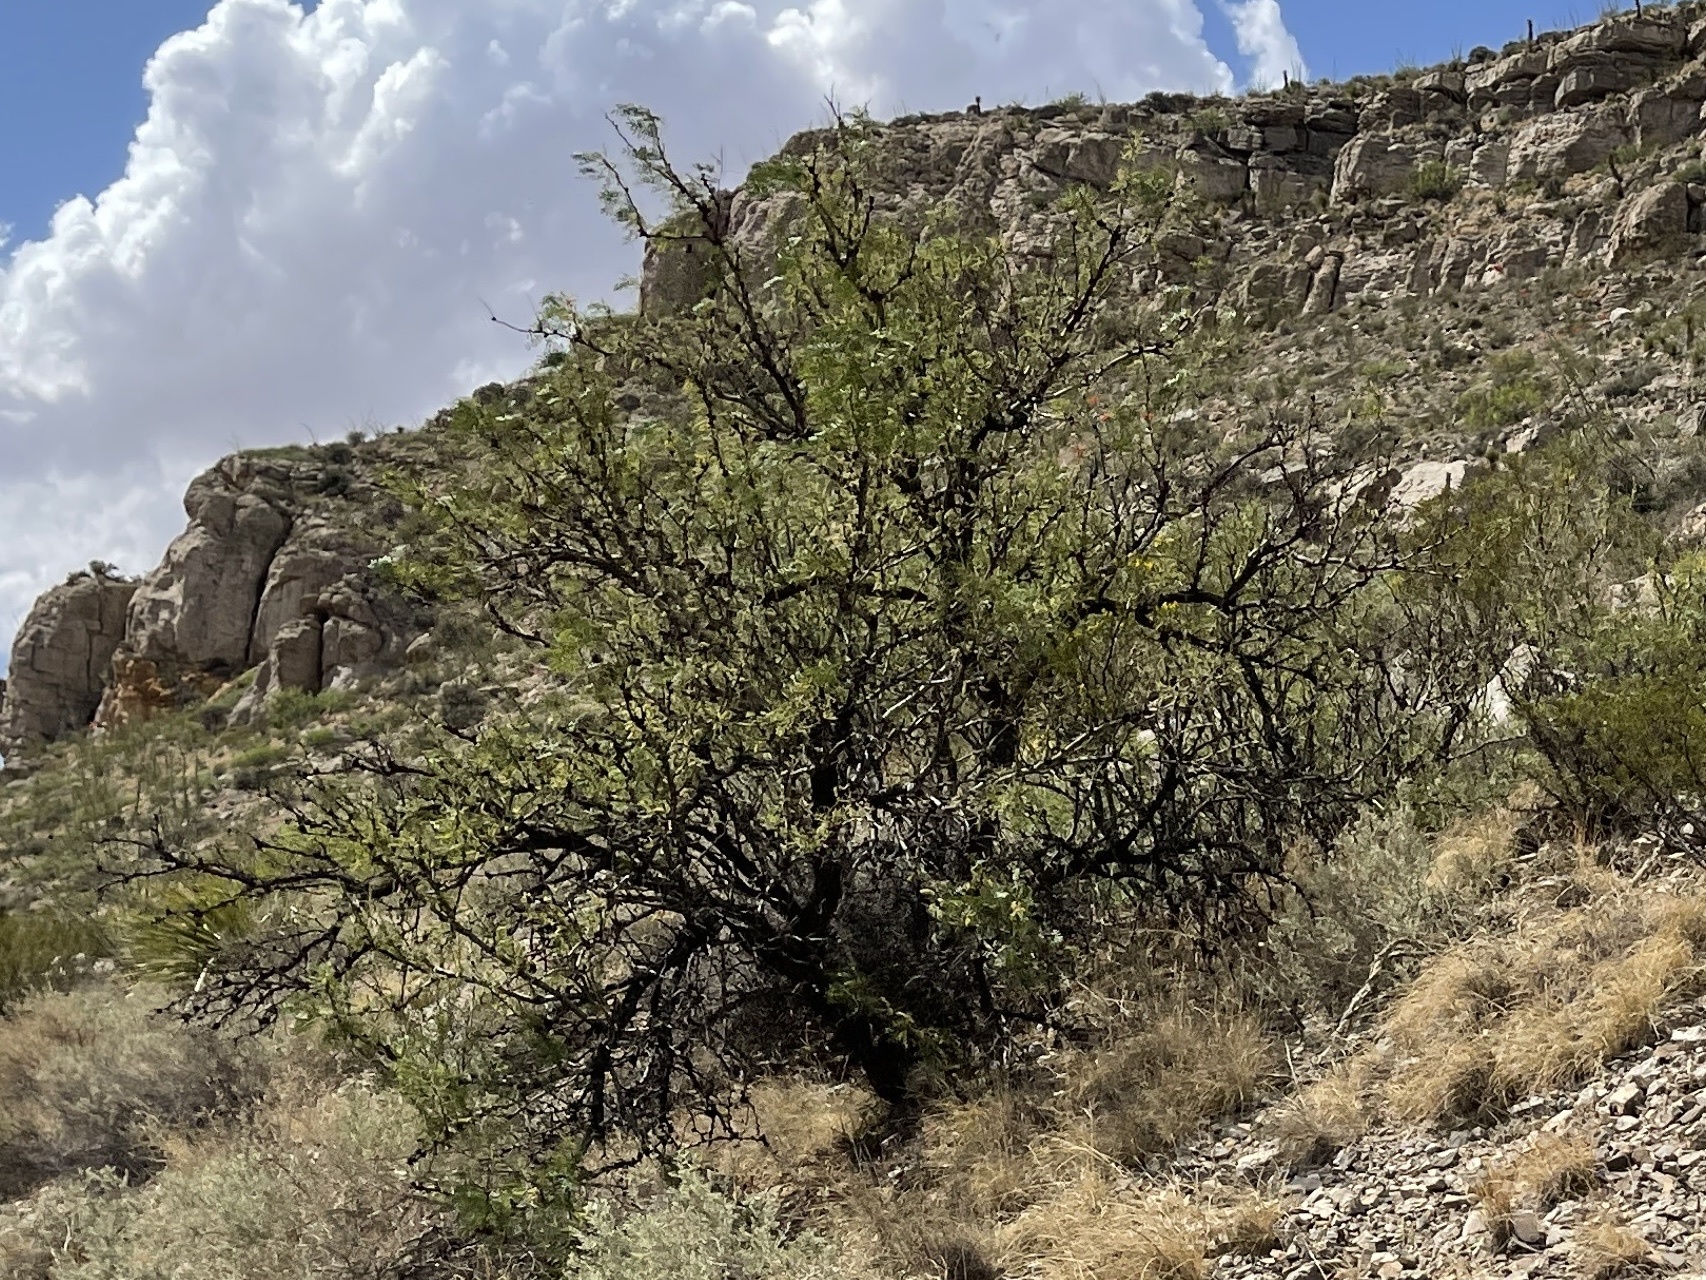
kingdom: Plantae
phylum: Tracheophyta
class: Magnoliopsida
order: Fabales
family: Fabaceae
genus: Prosopis
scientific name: Prosopis glandulosa
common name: Honey mesquite
